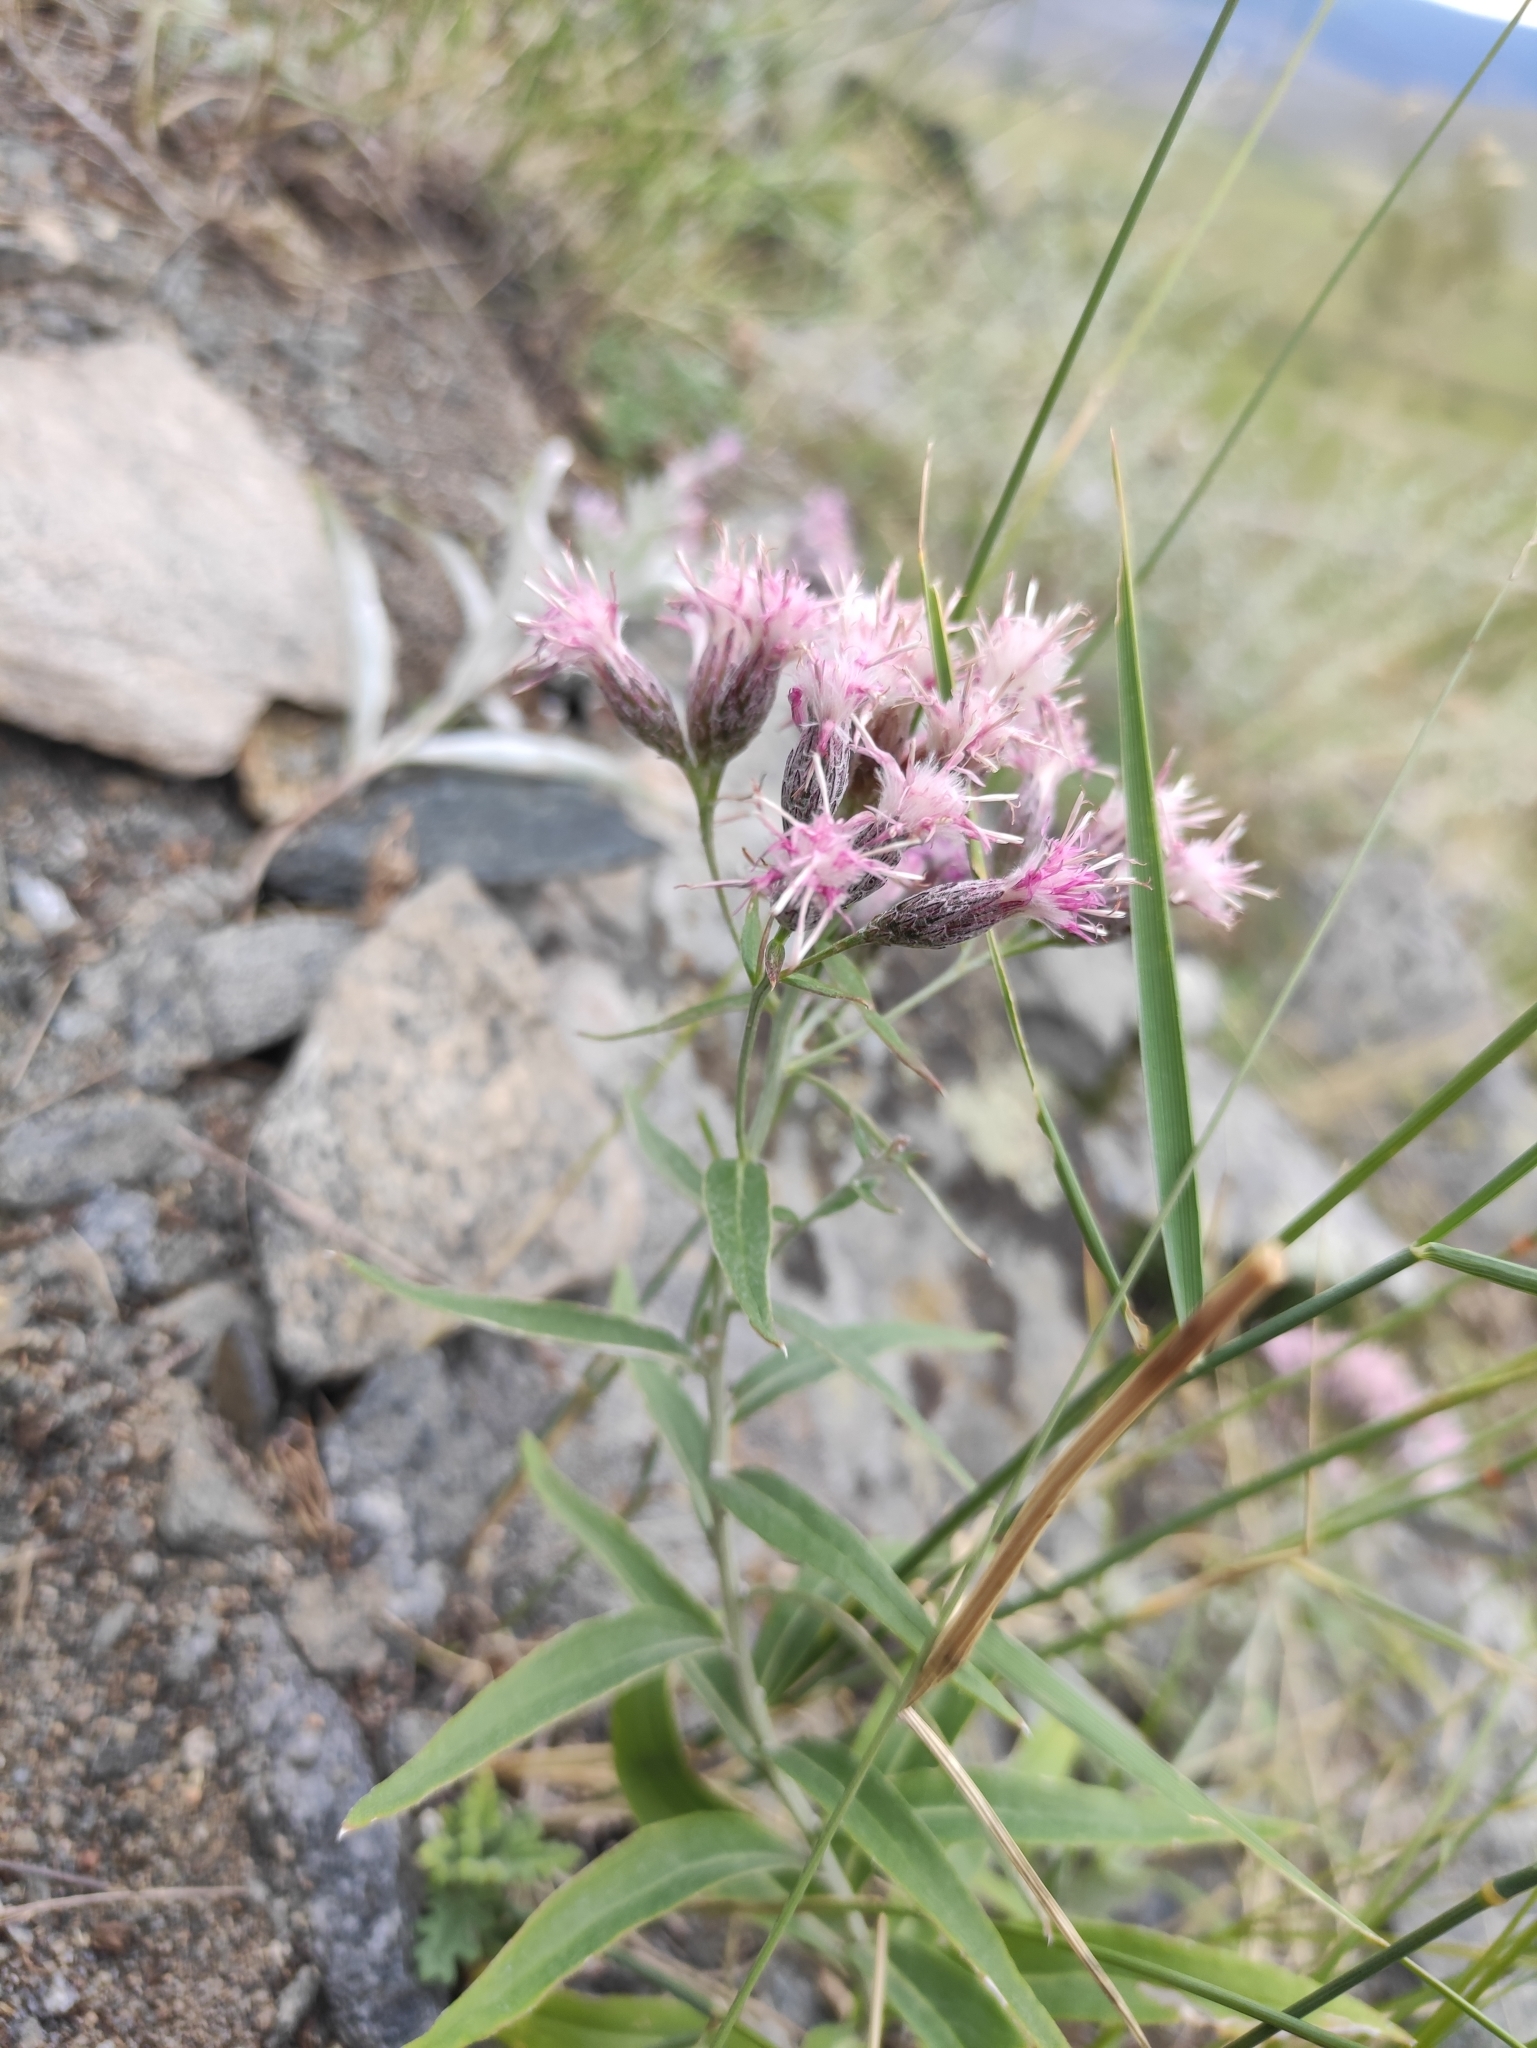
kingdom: Plantae
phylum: Tracheophyta
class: Magnoliopsida
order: Asterales
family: Asteraceae
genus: Saussurea
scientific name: Saussurea amara
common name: Alberta sawwort
